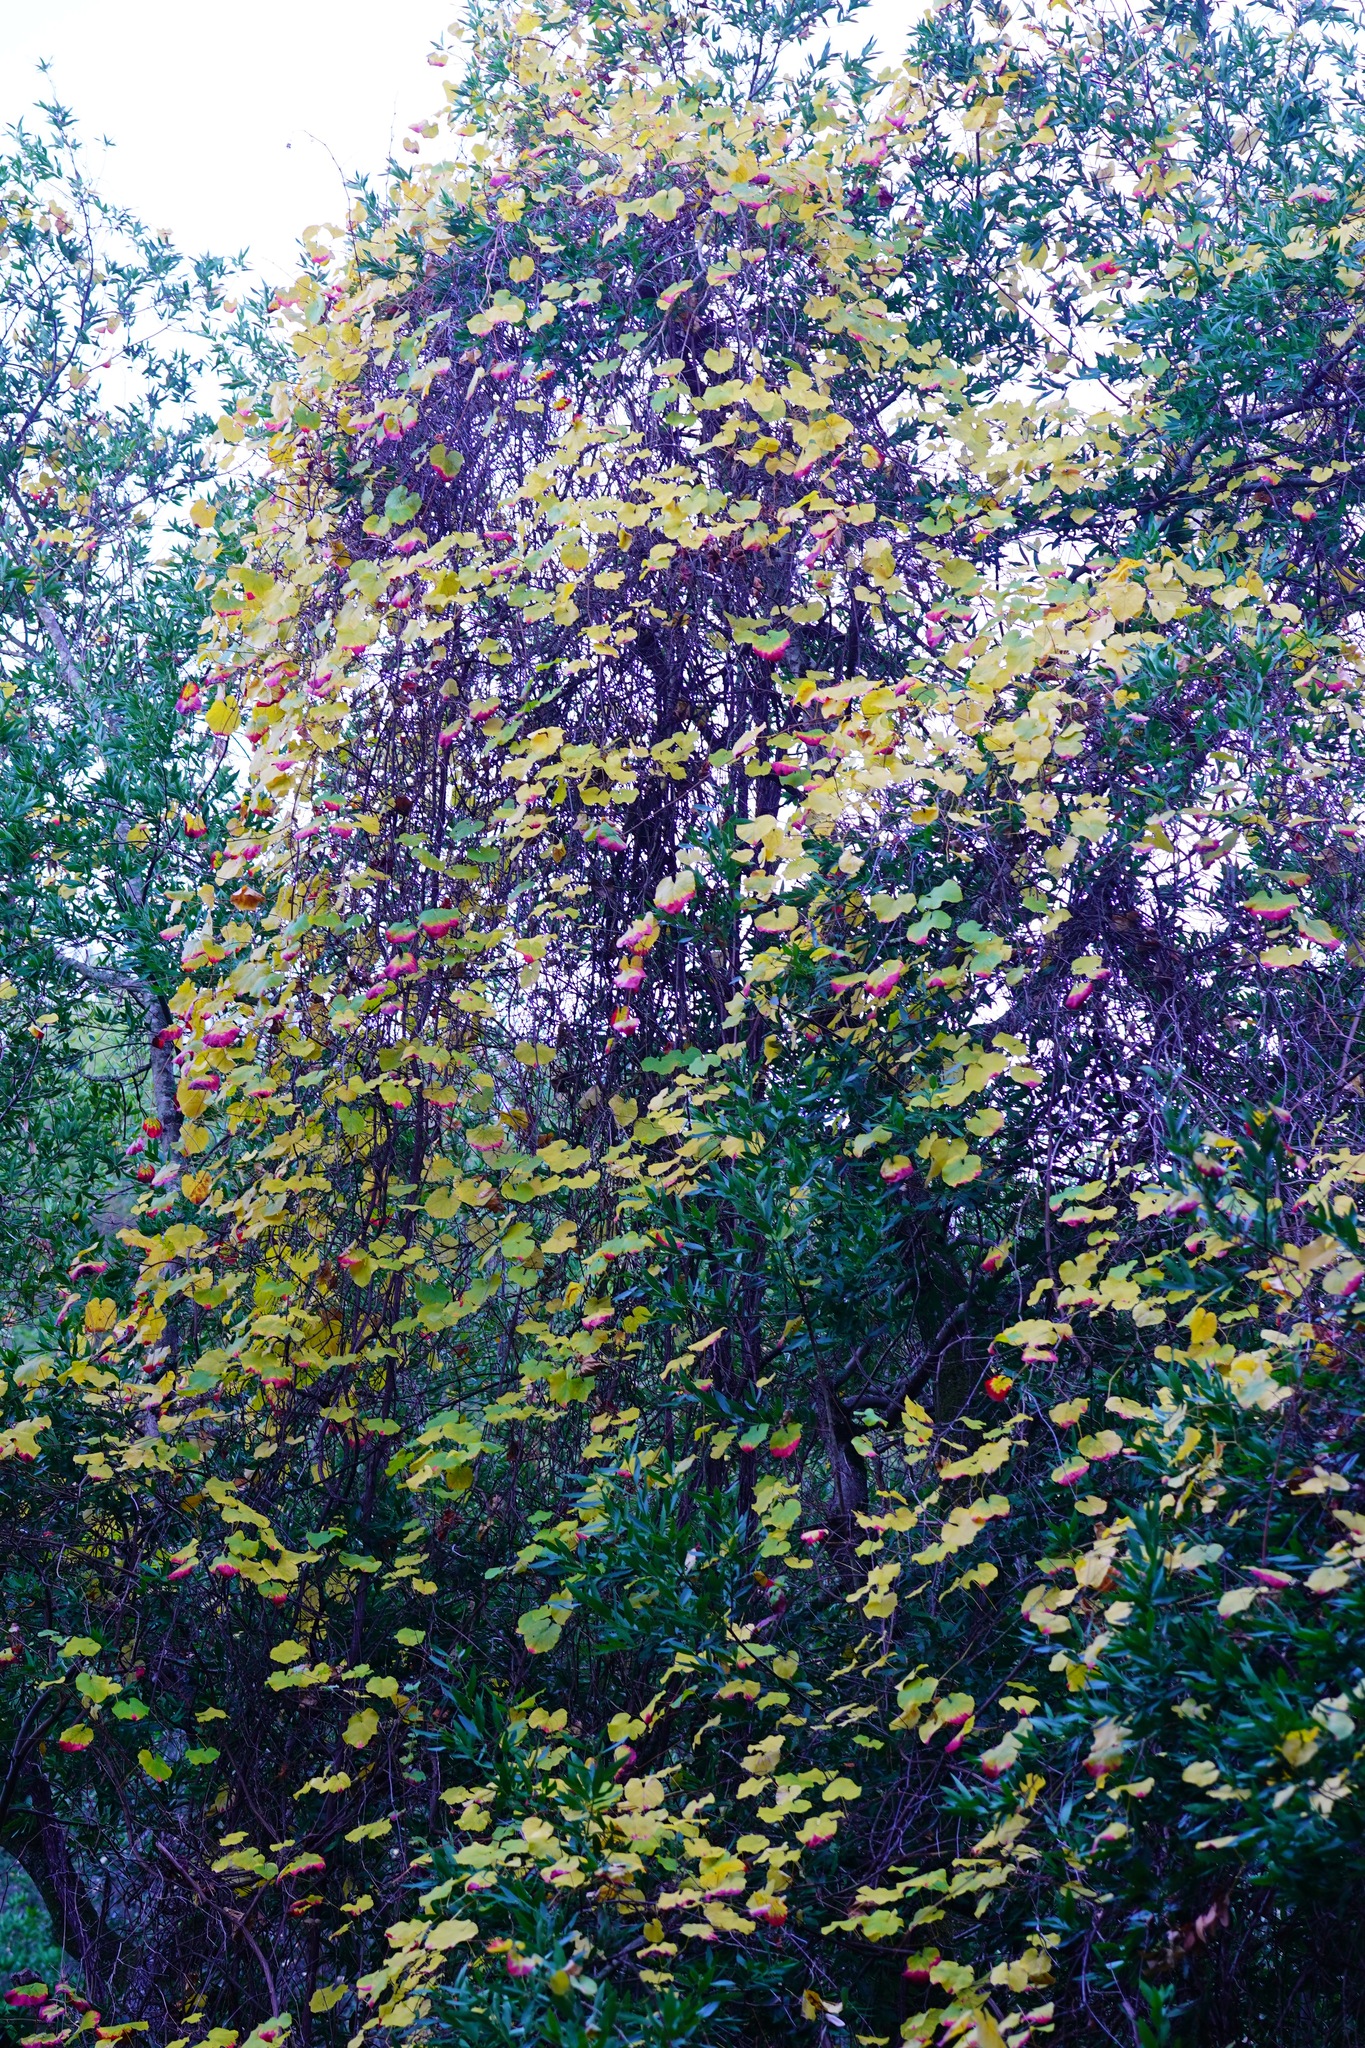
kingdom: Plantae
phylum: Tracheophyta
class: Magnoliopsida
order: Vitales
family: Vitaceae
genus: Vitis
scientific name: Vitis californica
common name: California wild grape
